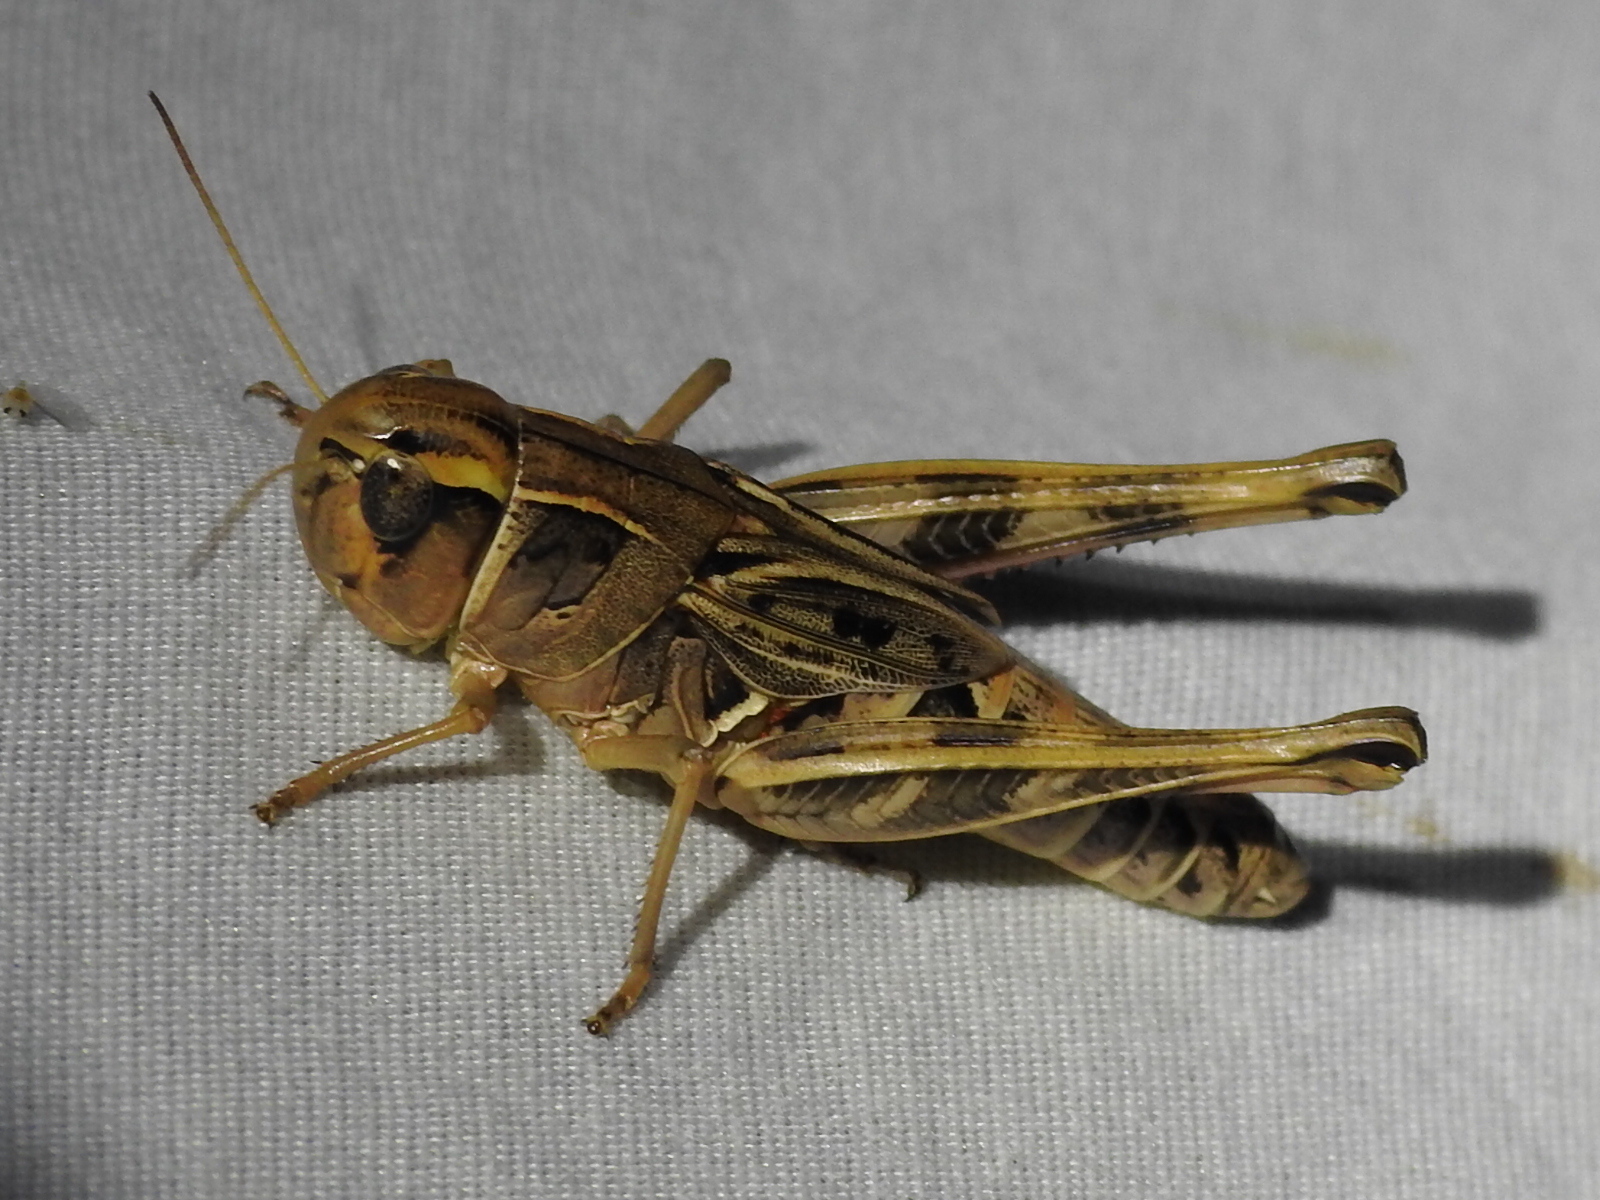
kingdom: Animalia
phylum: Arthropoda
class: Insecta
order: Orthoptera
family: Acrididae
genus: Boopedon
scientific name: Boopedon gracile
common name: Graceful range grasshopper
